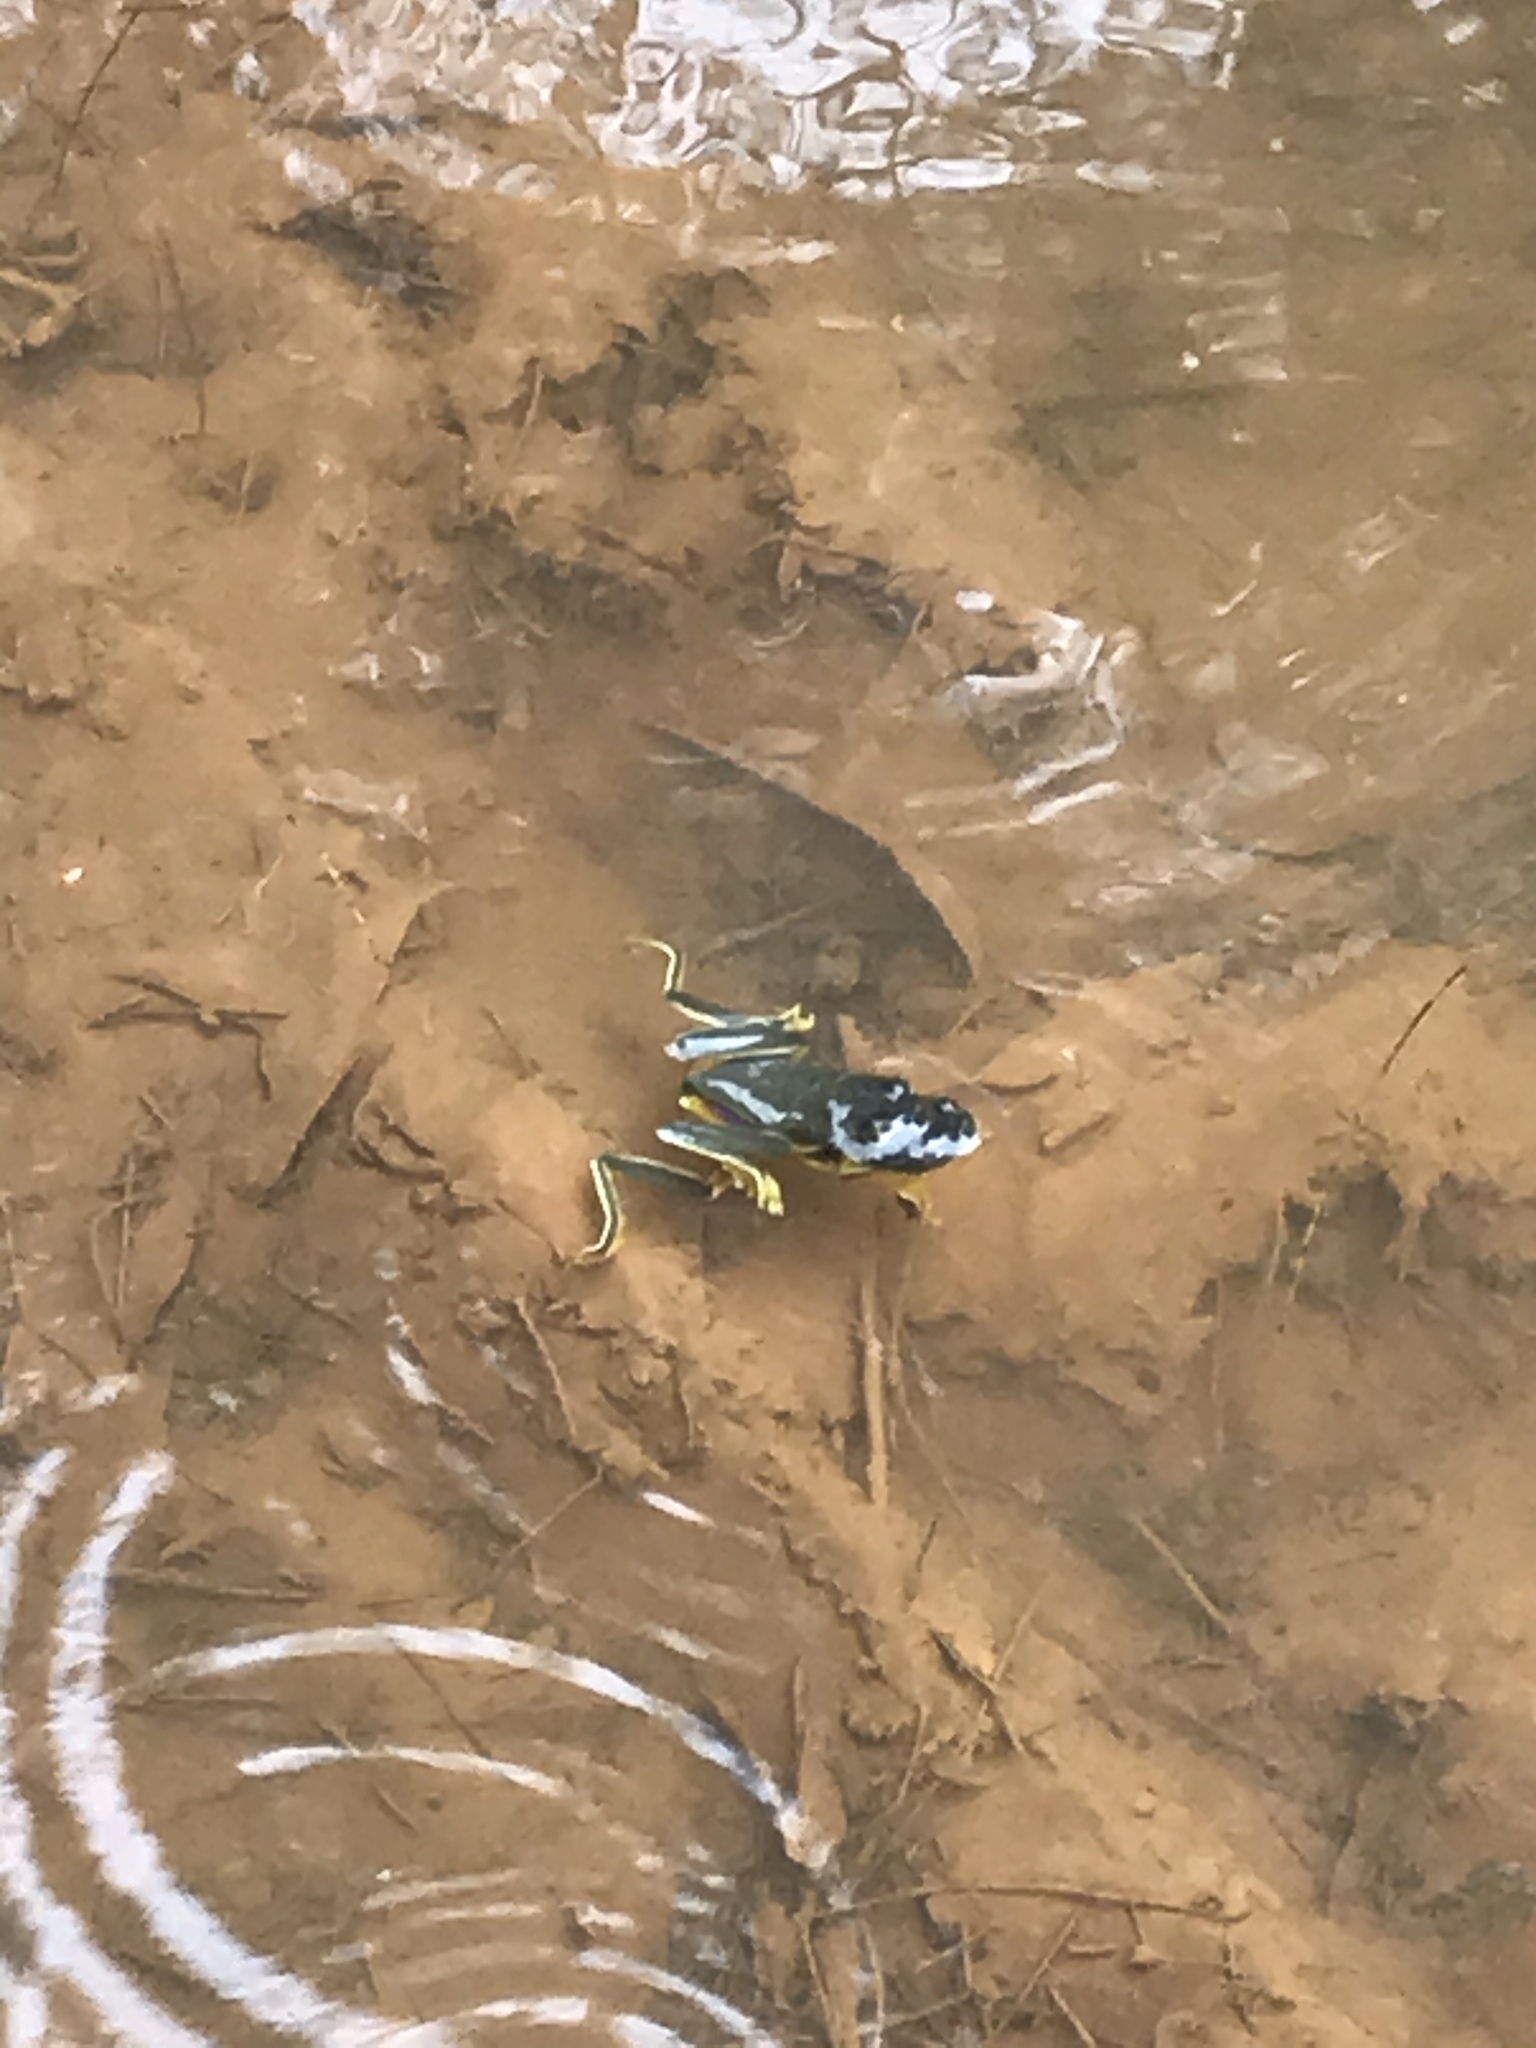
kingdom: Animalia
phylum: Chordata
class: Amphibia
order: Anura
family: Pelodryadidae
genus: Ranoidea
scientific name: Ranoidea gracilenta
